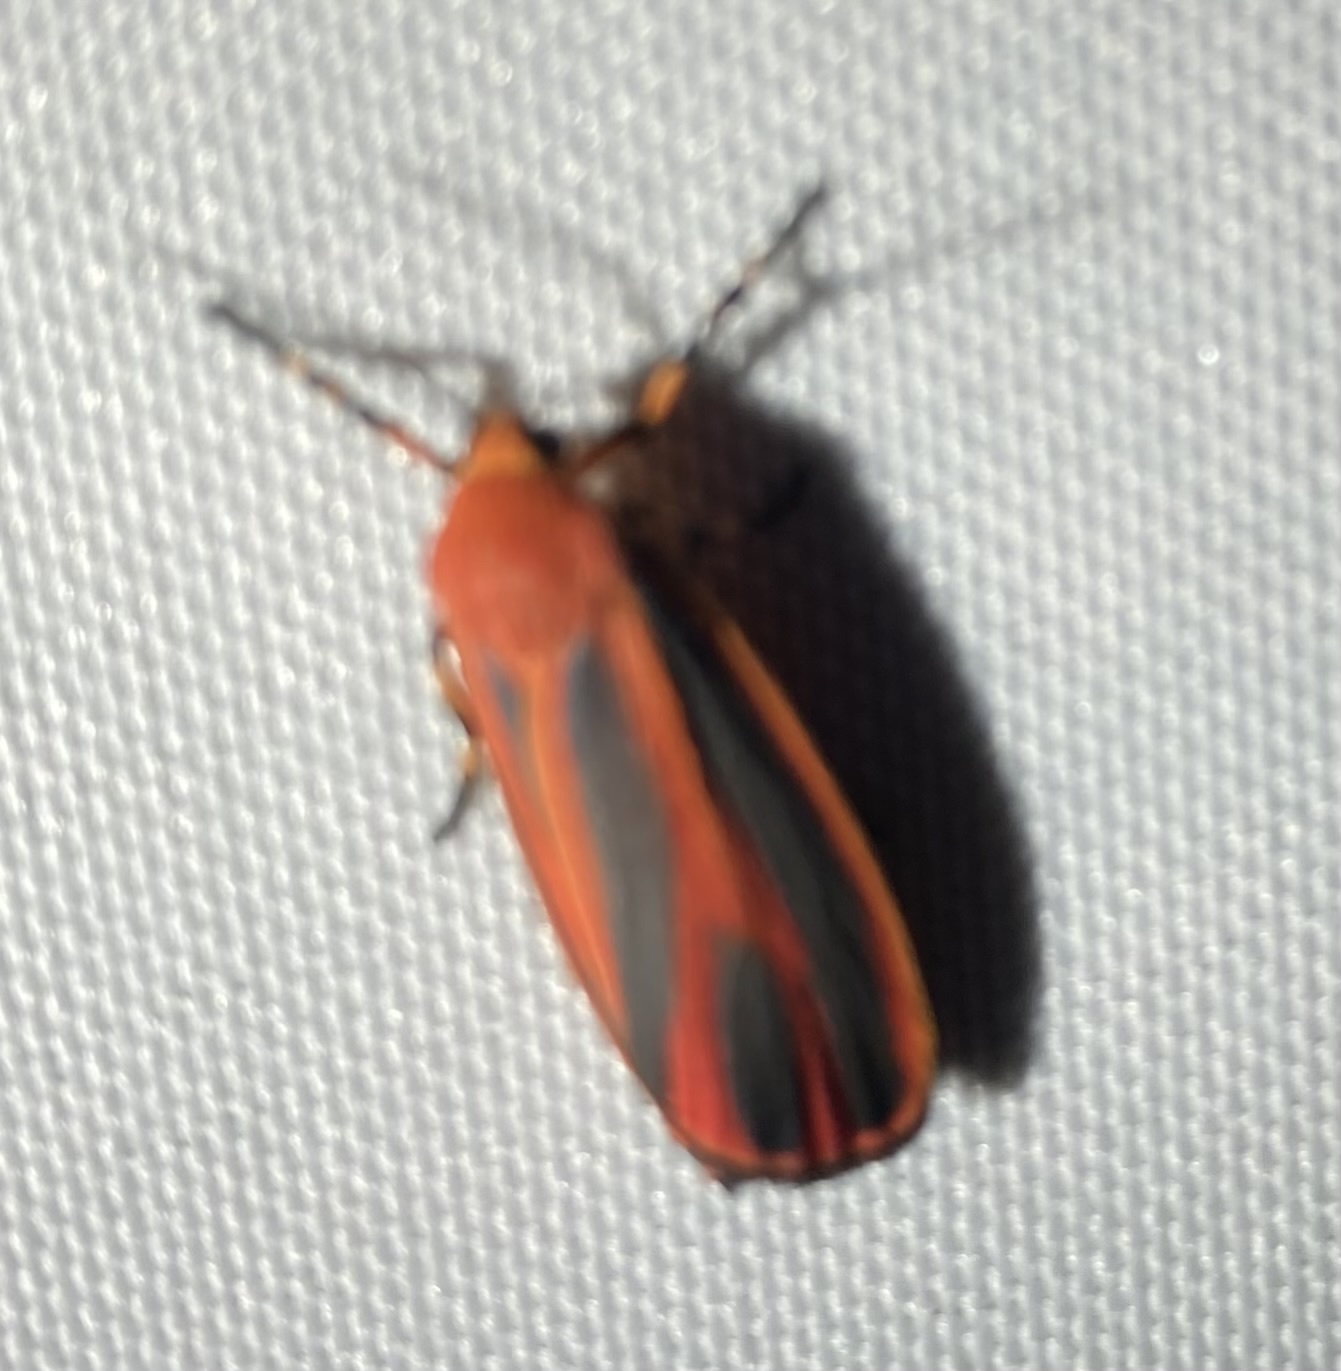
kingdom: Animalia
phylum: Arthropoda
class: Insecta
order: Lepidoptera
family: Erebidae
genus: Hypoprepia
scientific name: Hypoprepia miniata
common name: Scarlet-winged lichen moth
